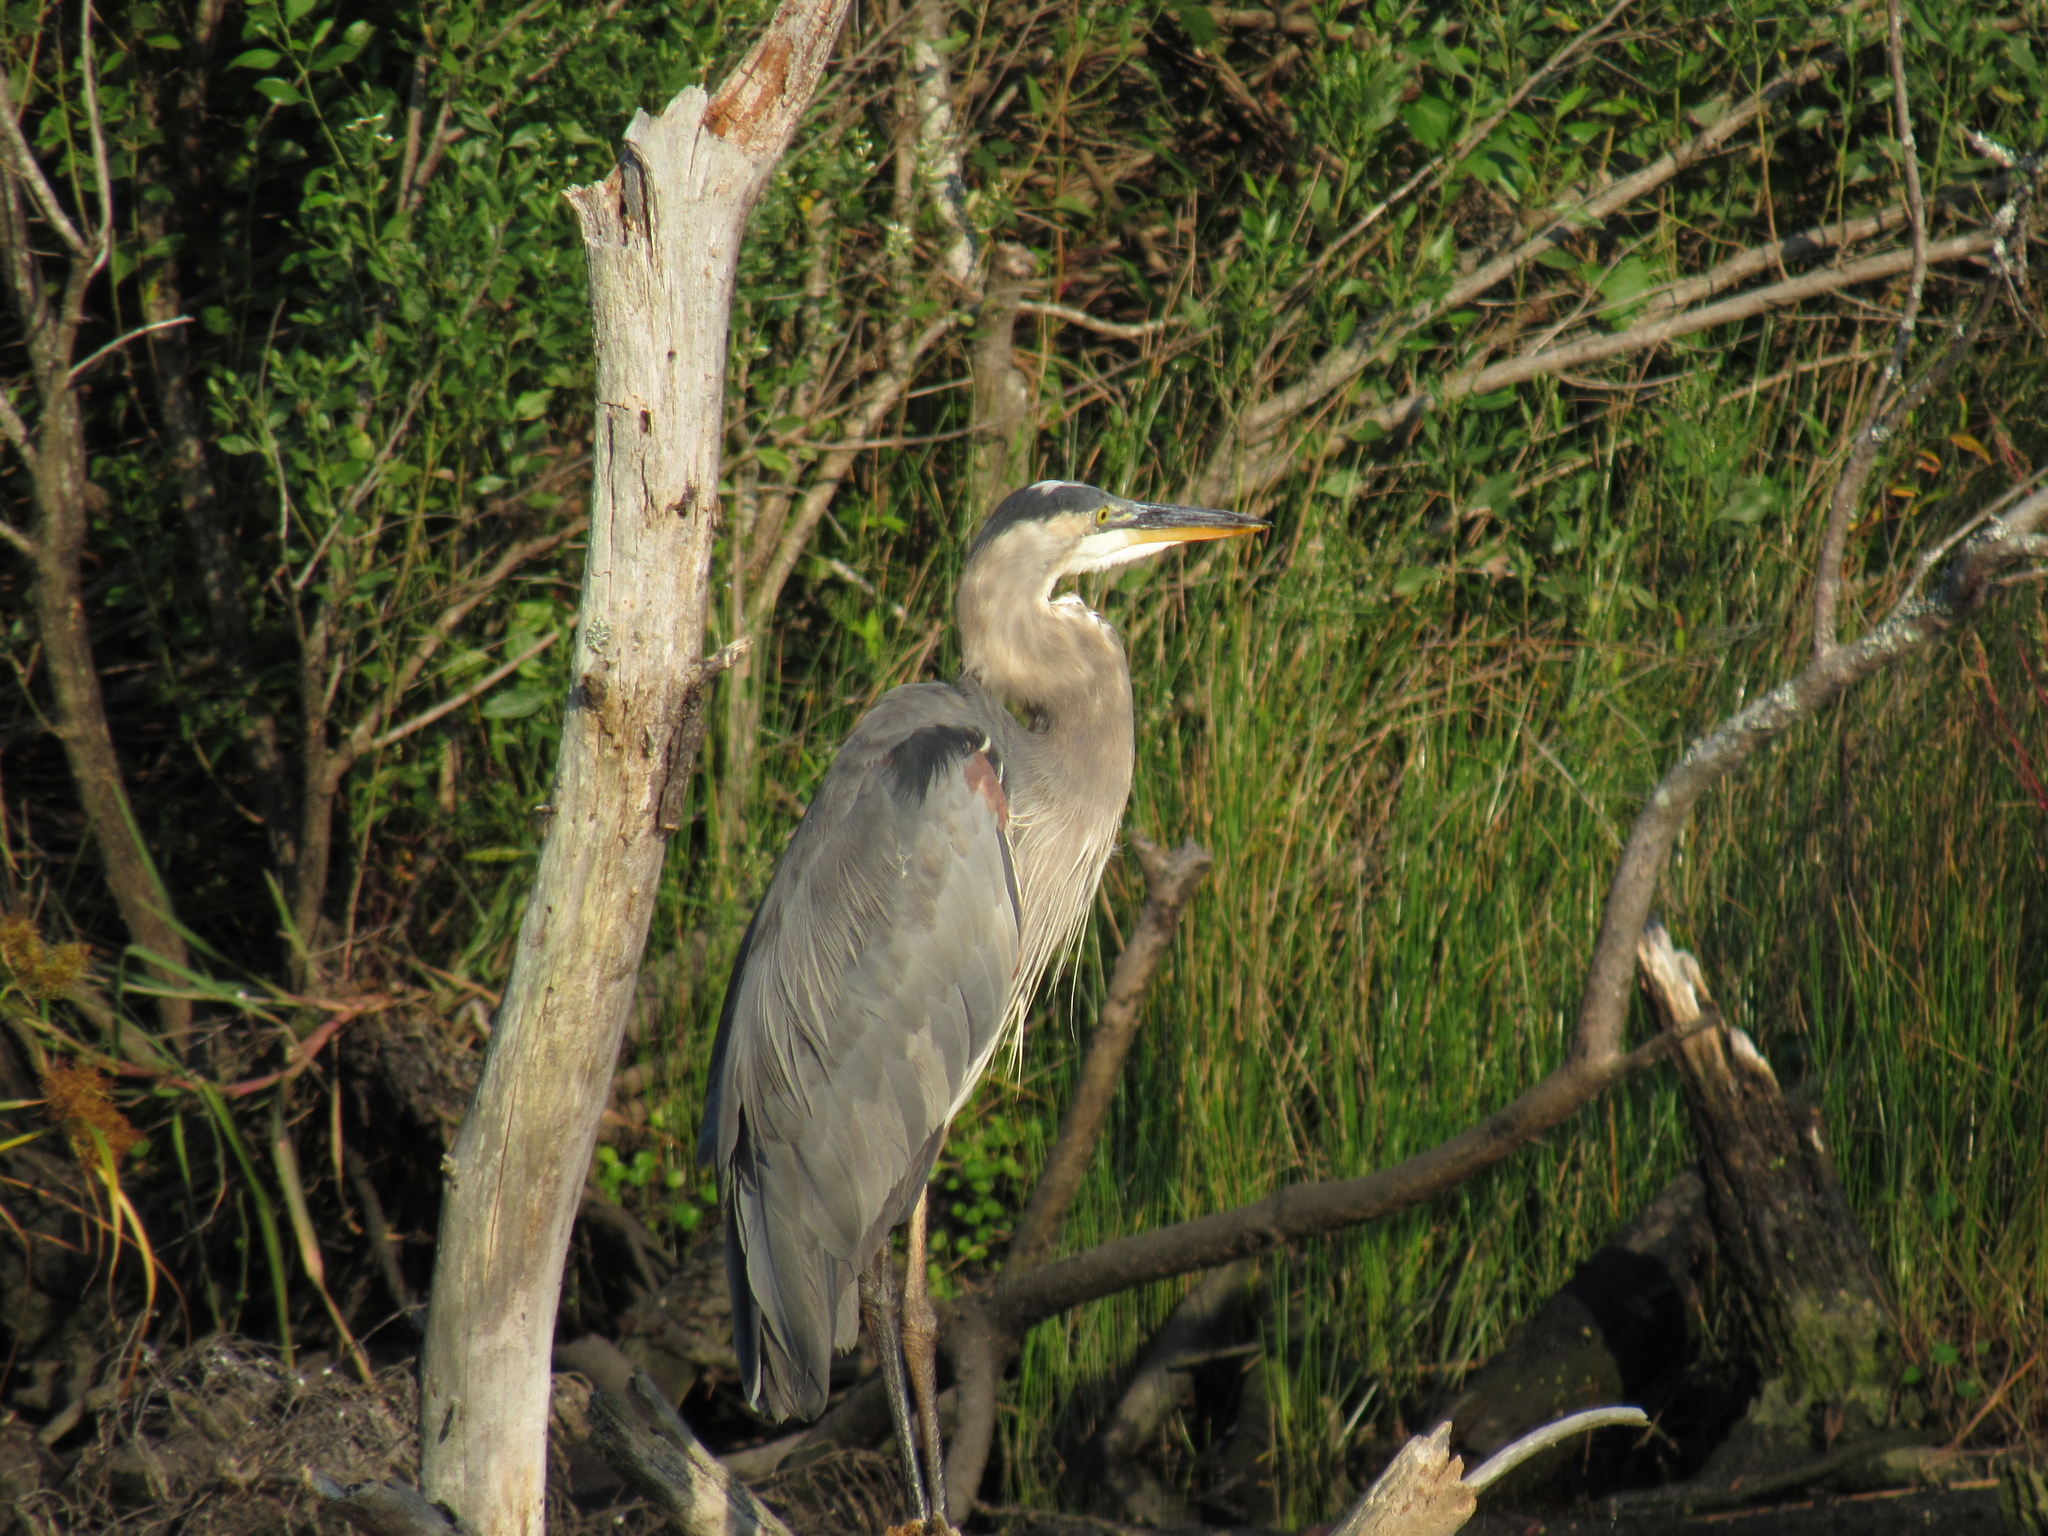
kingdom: Animalia
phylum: Chordata
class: Aves
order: Pelecaniformes
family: Ardeidae
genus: Ardea
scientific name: Ardea herodias
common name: Great blue heron
